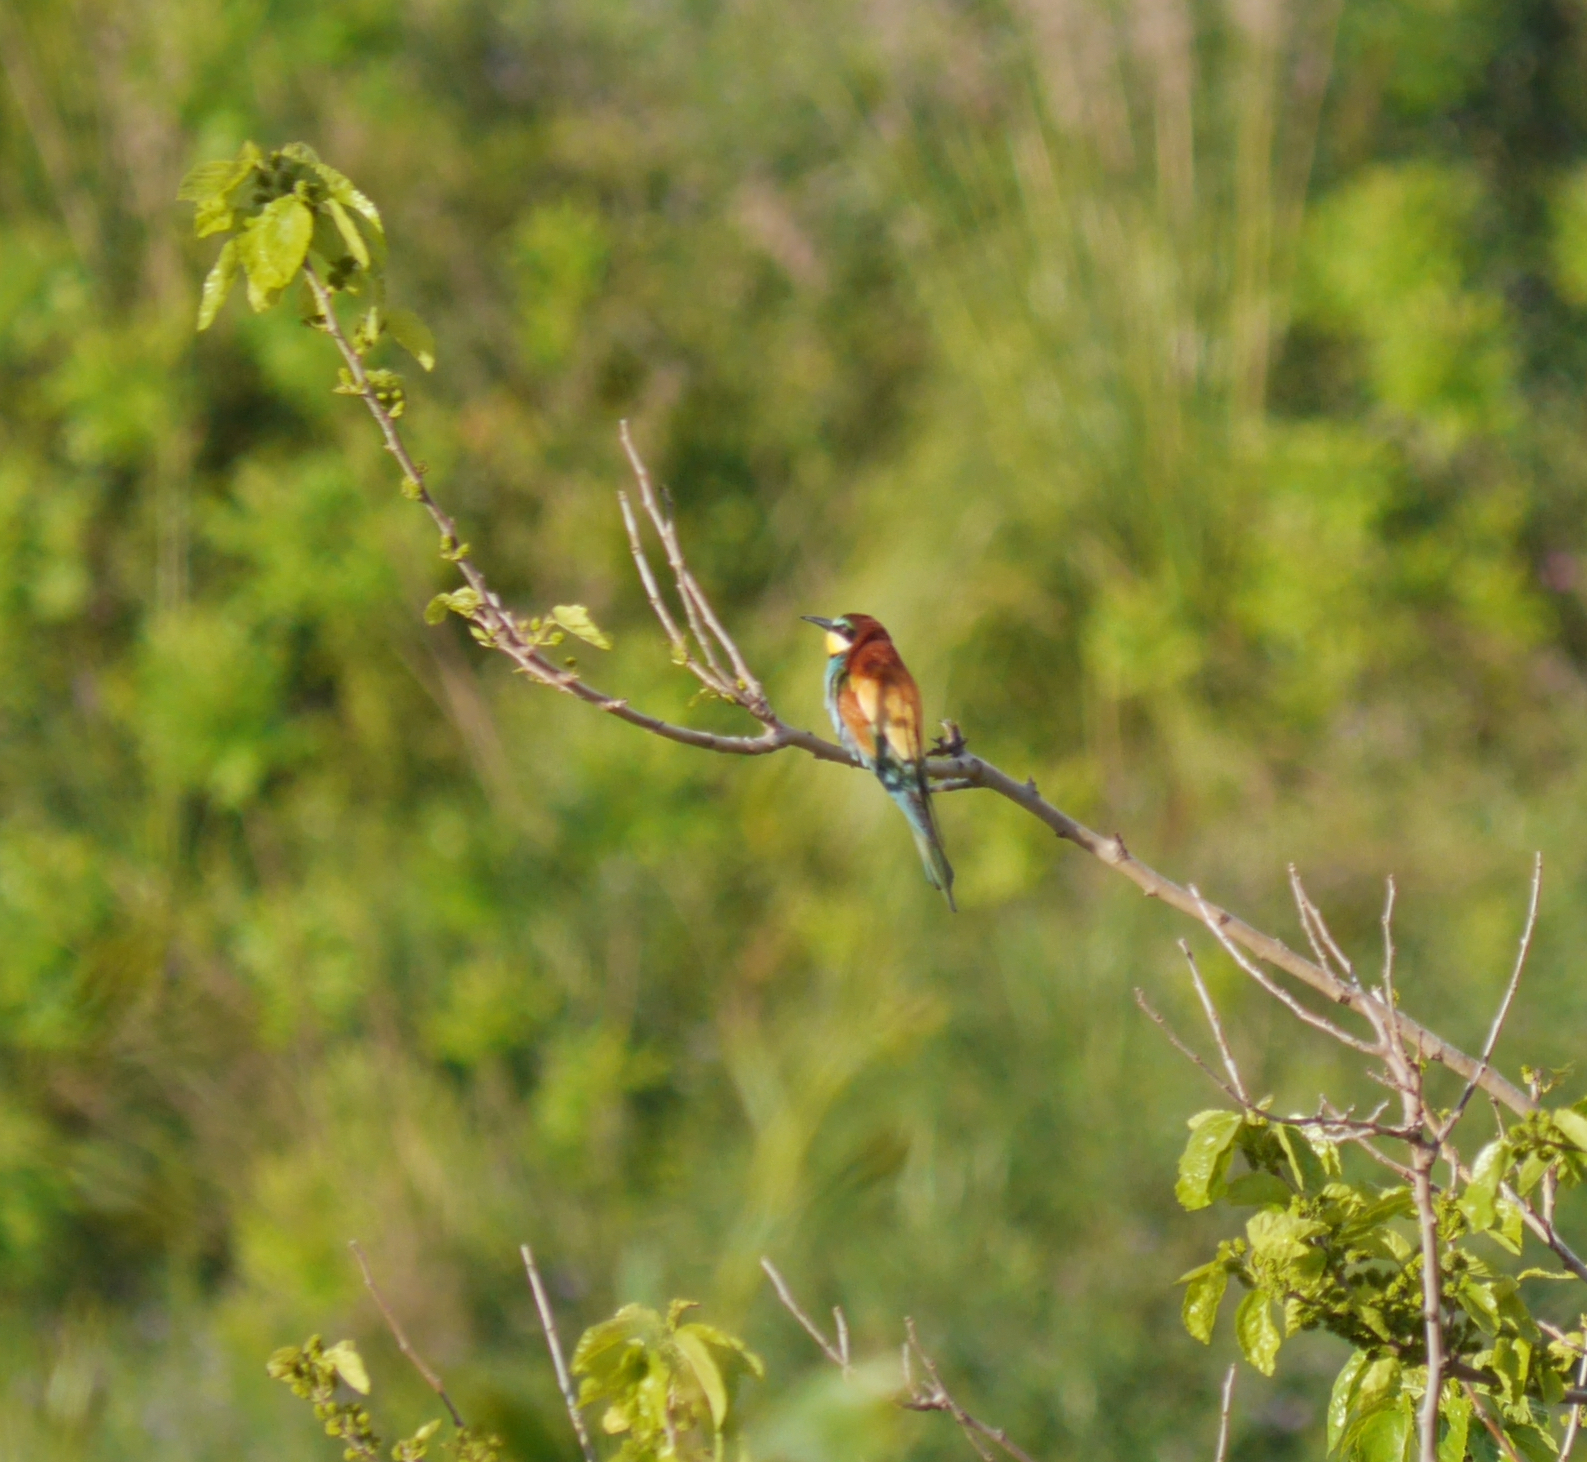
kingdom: Animalia
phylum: Chordata
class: Aves
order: Coraciiformes
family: Meropidae
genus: Merops
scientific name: Merops apiaster
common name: European bee-eater
